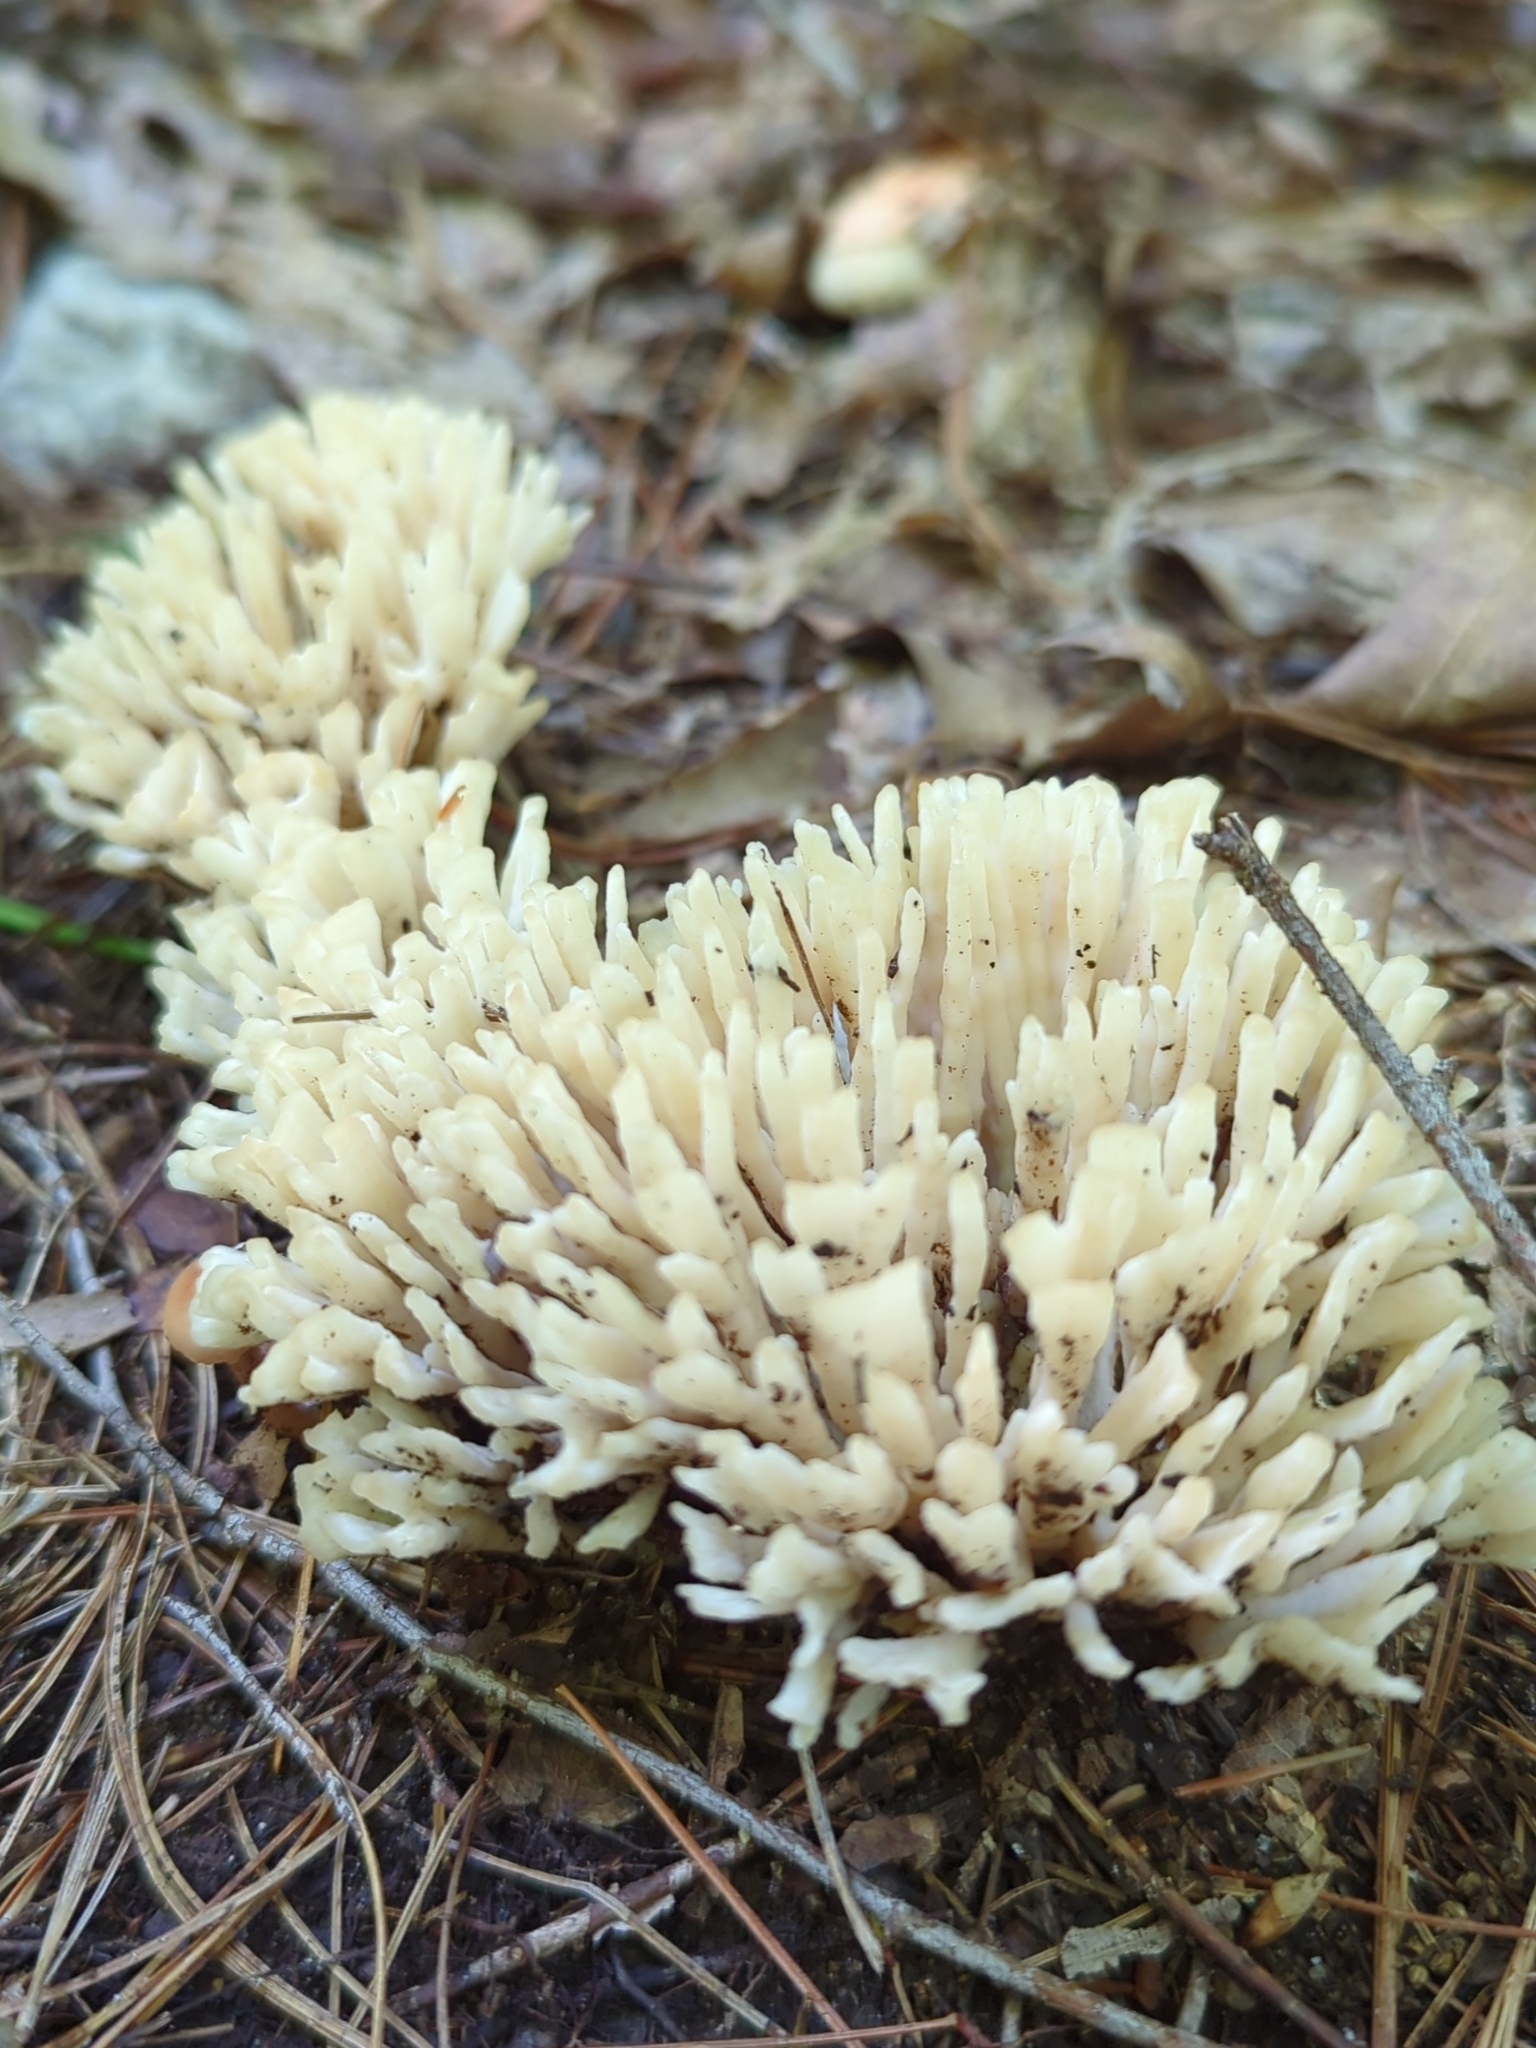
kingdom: Fungi
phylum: Basidiomycota
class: Agaricomycetes
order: Sebacinales
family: Sebacinaceae
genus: Sebacina
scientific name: Sebacina schweinitzii
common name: Jellied false coral fungus
